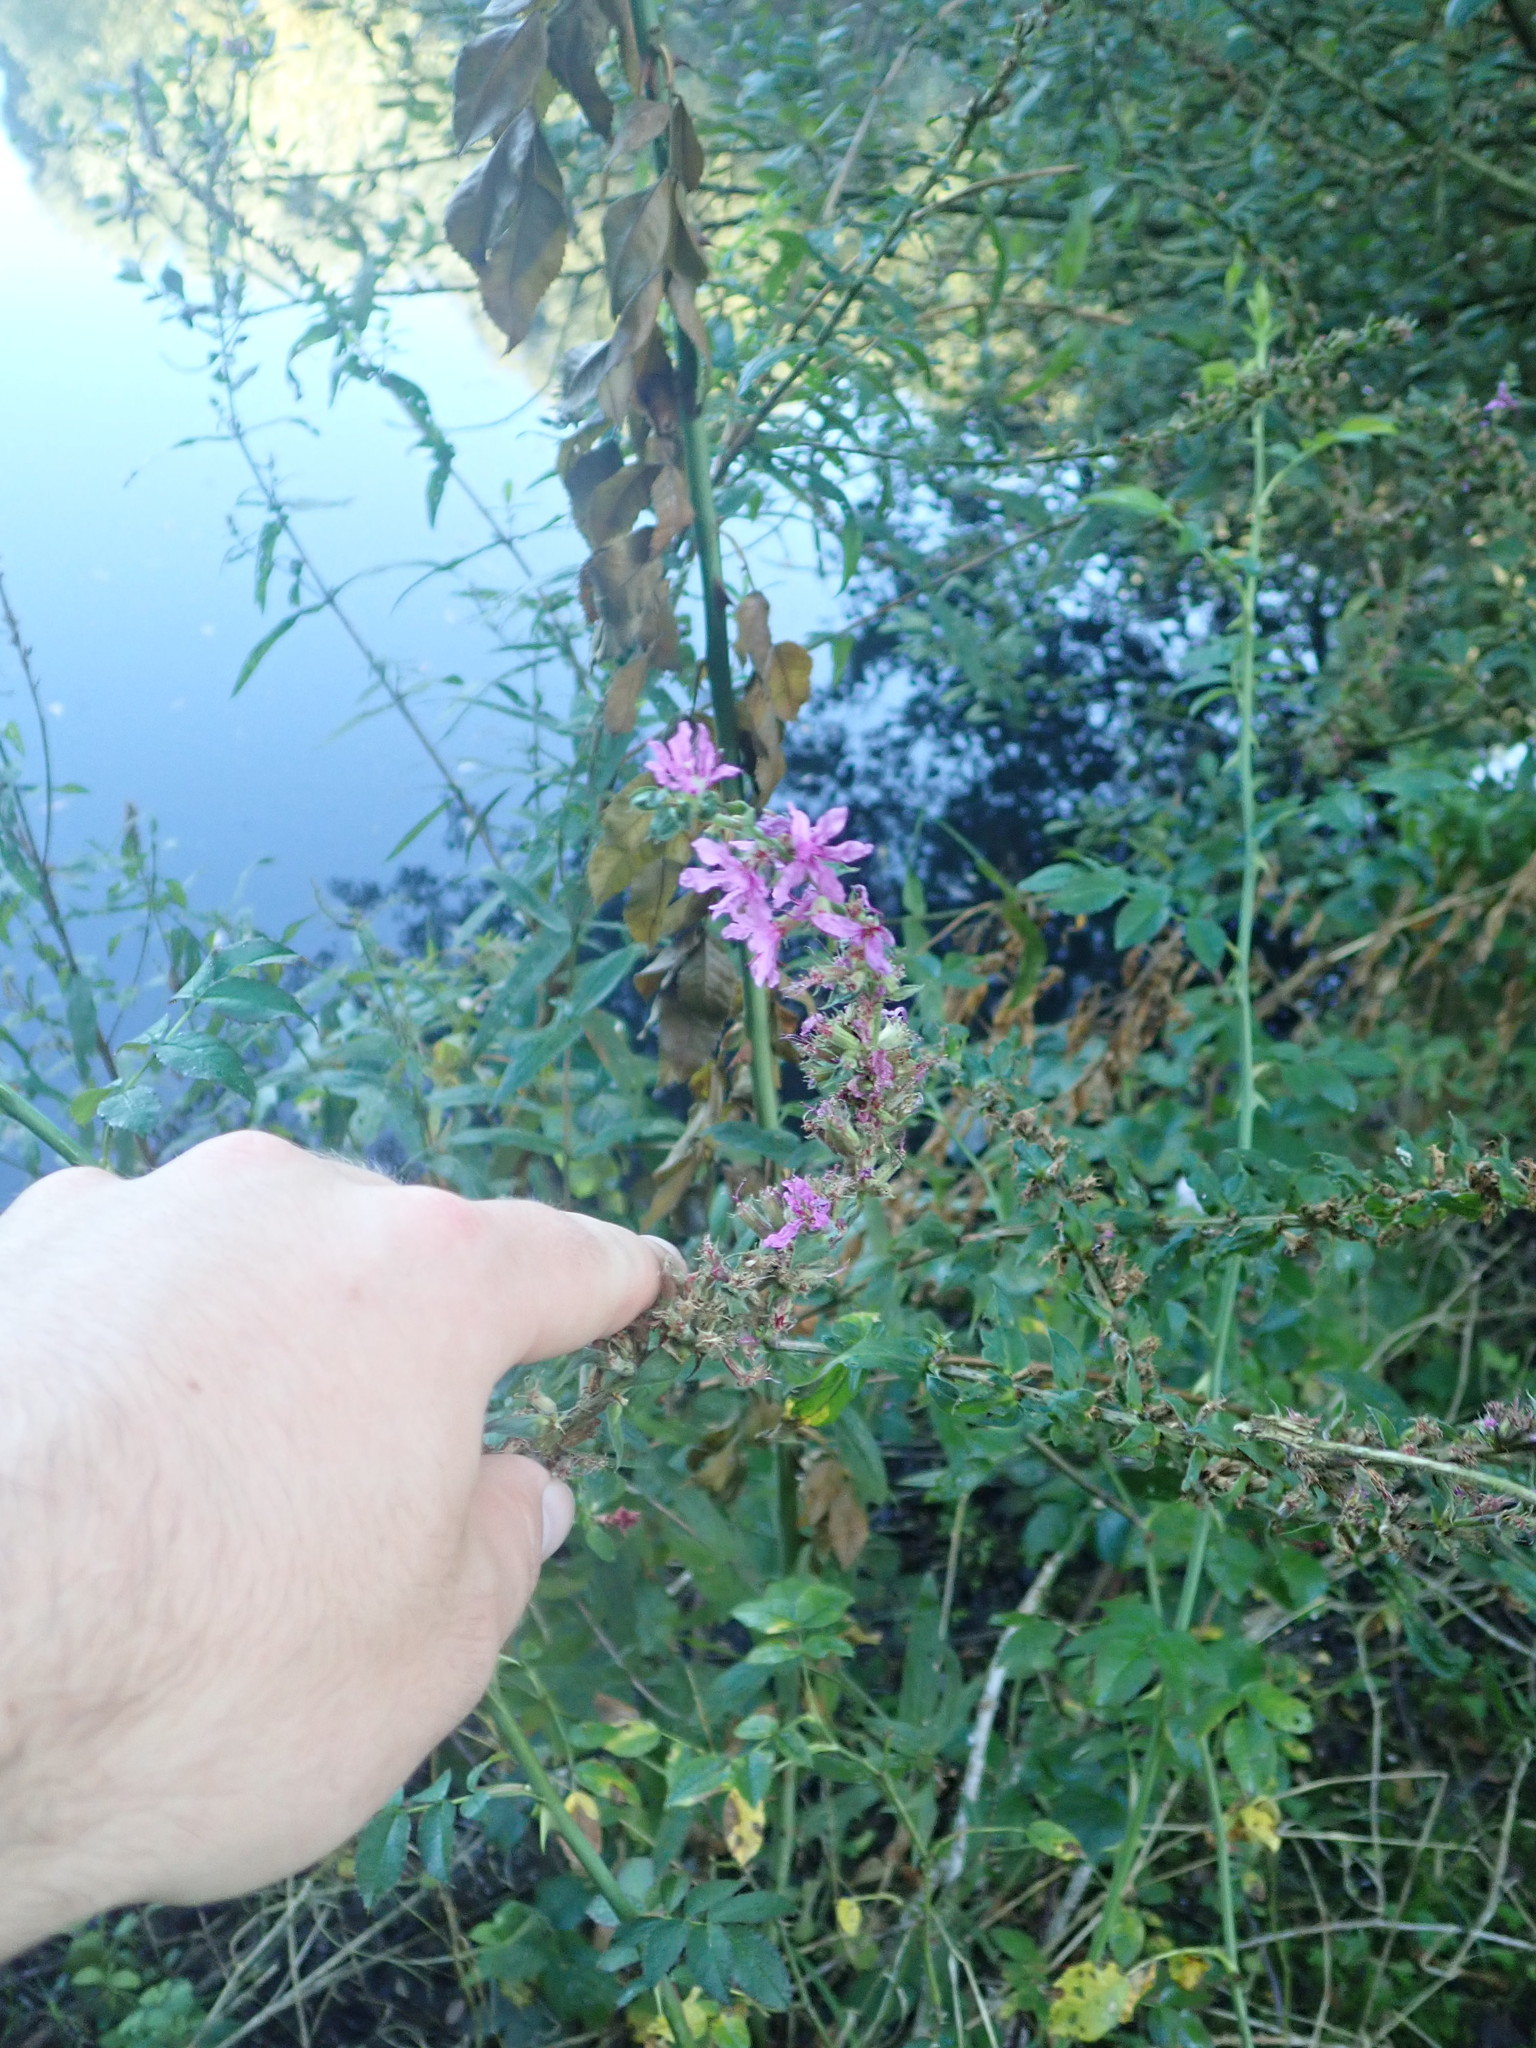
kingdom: Plantae
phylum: Tracheophyta
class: Magnoliopsida
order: Myrtales
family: Lythraceae
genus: Lythrum
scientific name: Lythrum salicaria
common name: Purple loosestrife
